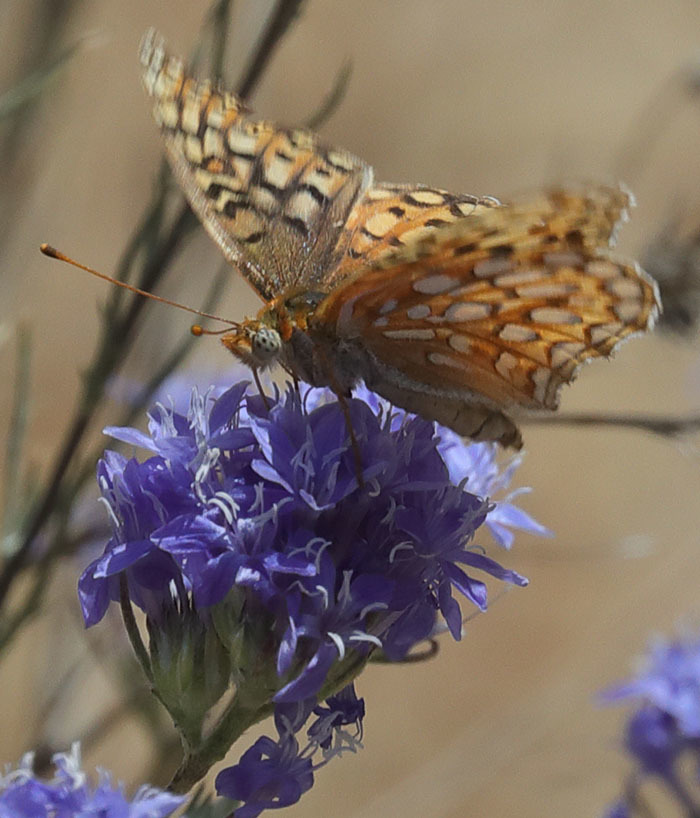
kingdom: Animalia
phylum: Arthropoda
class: Insecta
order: Lepidoptera
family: Nymphalidae
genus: Speyeria
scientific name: Speyeria callippe
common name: Callippe fritillary
